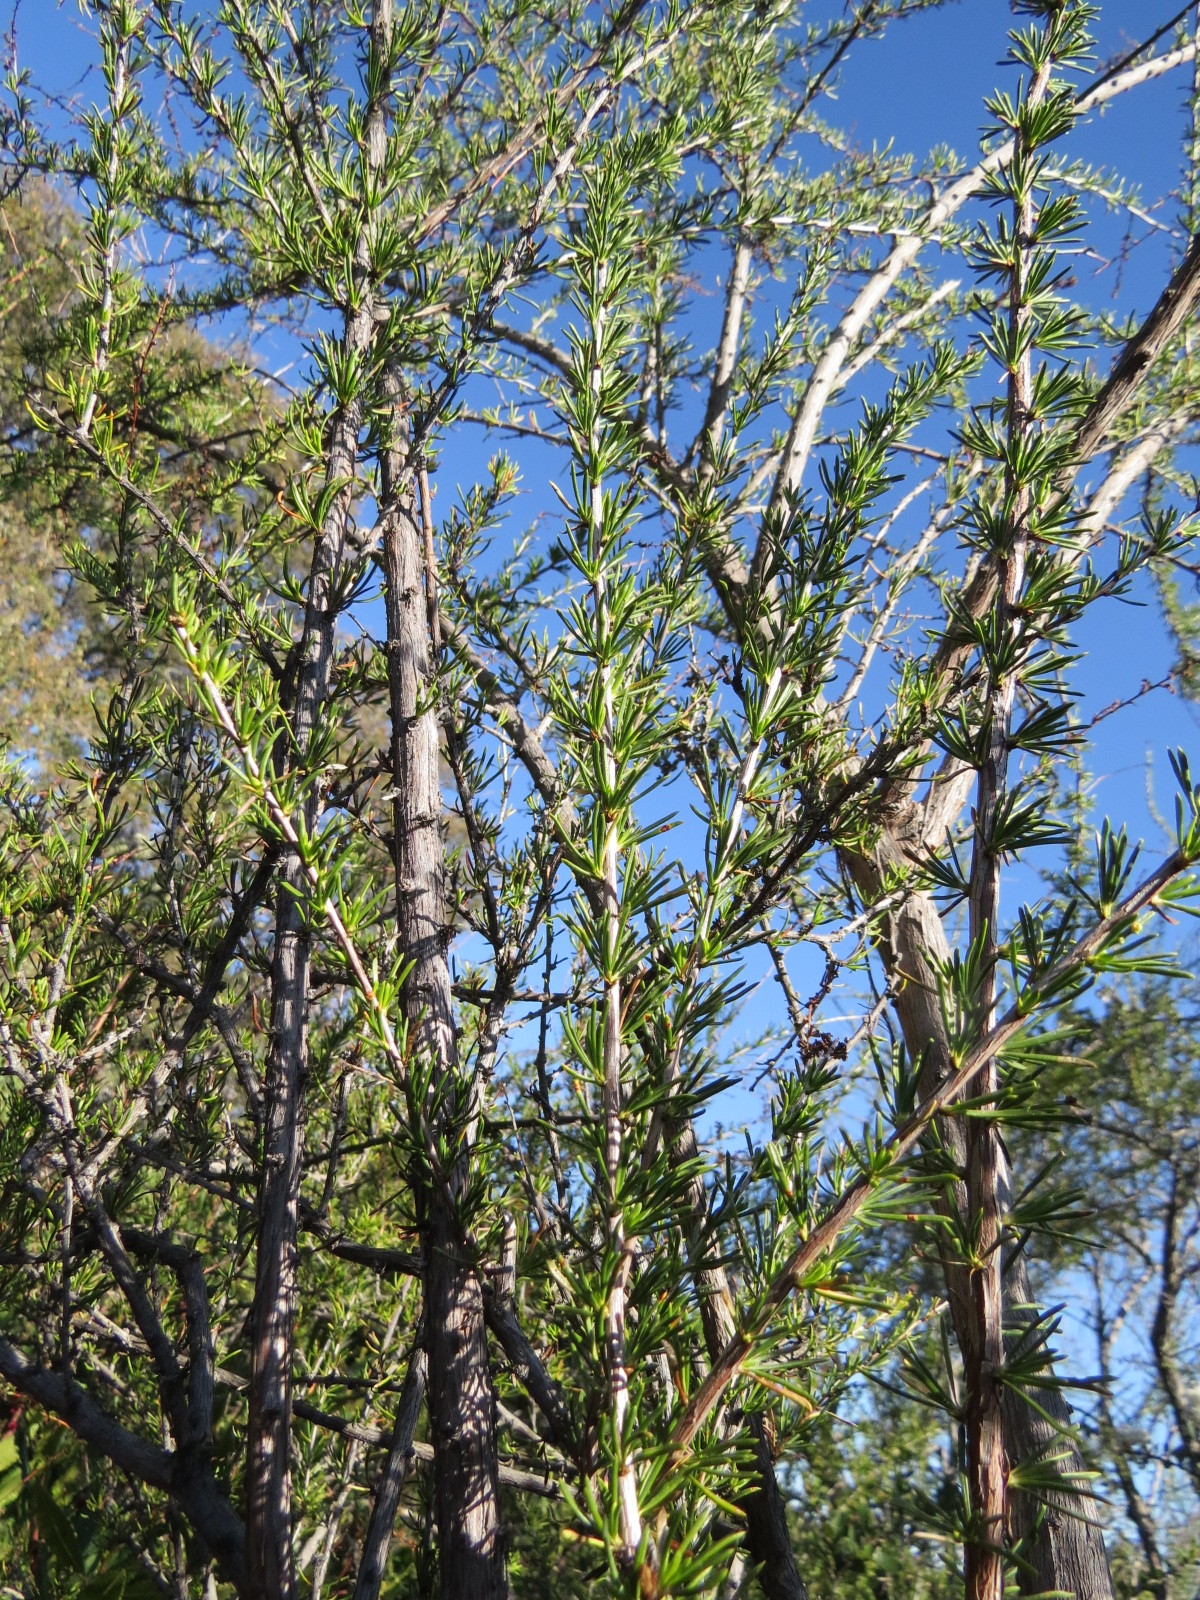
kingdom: Plantae
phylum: Tracheophyta
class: Magnoliopsida
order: Rosales
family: Rosaceae
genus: Adenostoma
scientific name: Adenostoma fasciculatum
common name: Chamise
